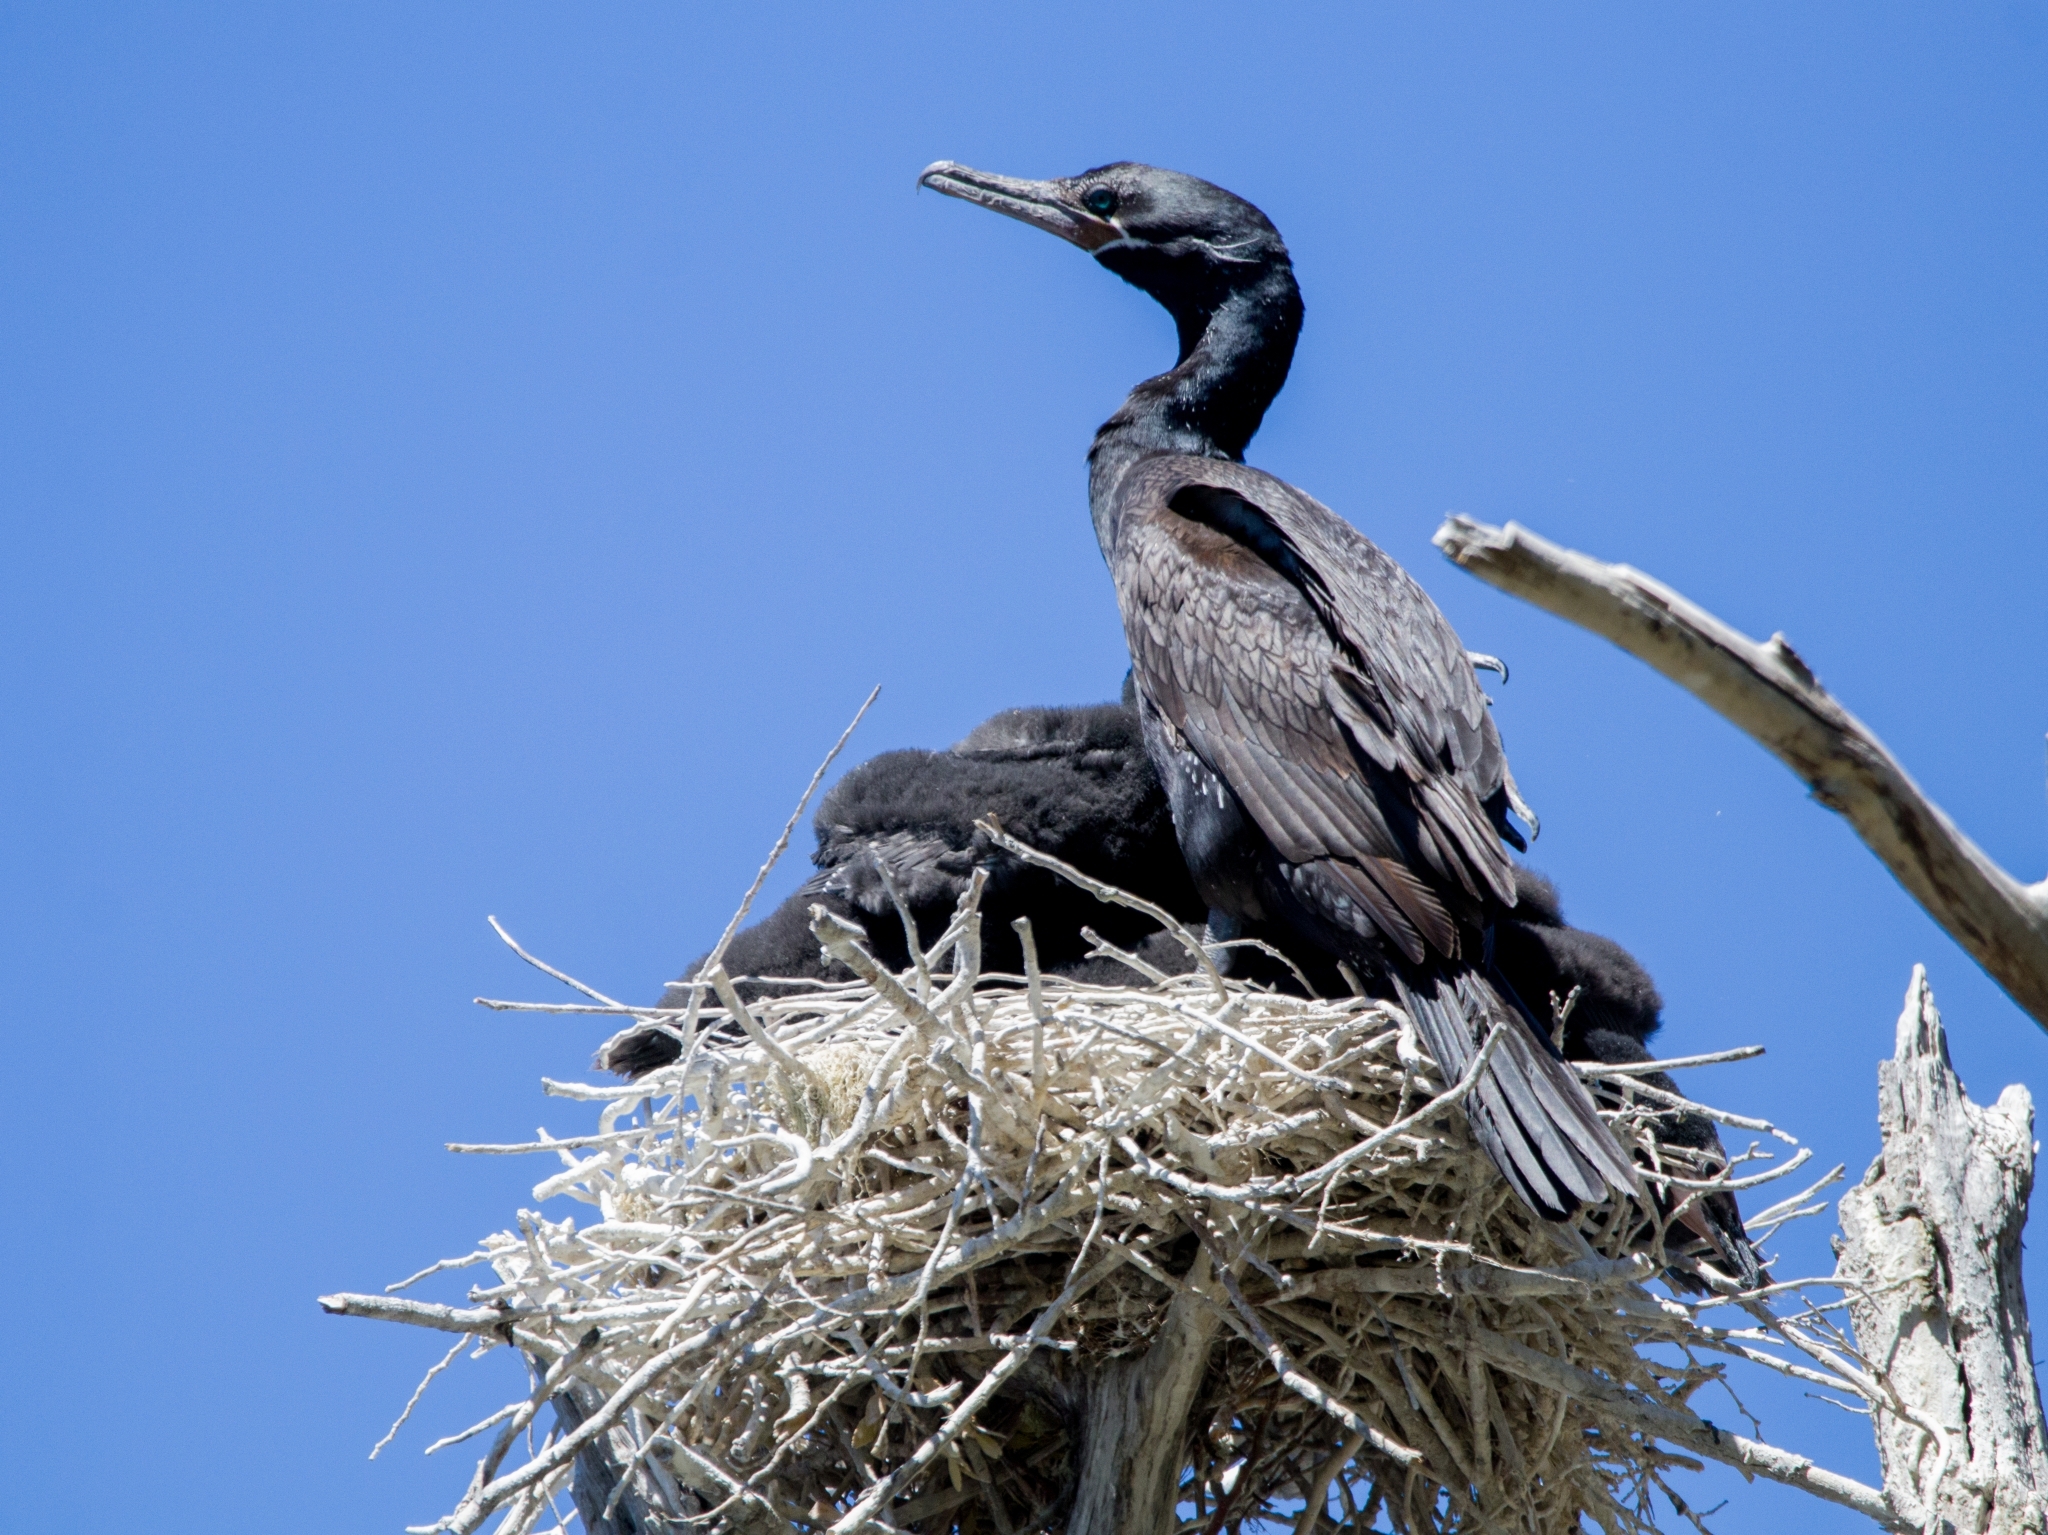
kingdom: Animalia
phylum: Chordata
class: Aves
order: Suliformes
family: Phalacrocoracidae
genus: Phalacrocorax
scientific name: Phalacrocorax brasilianus
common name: Neotropic cormorant
